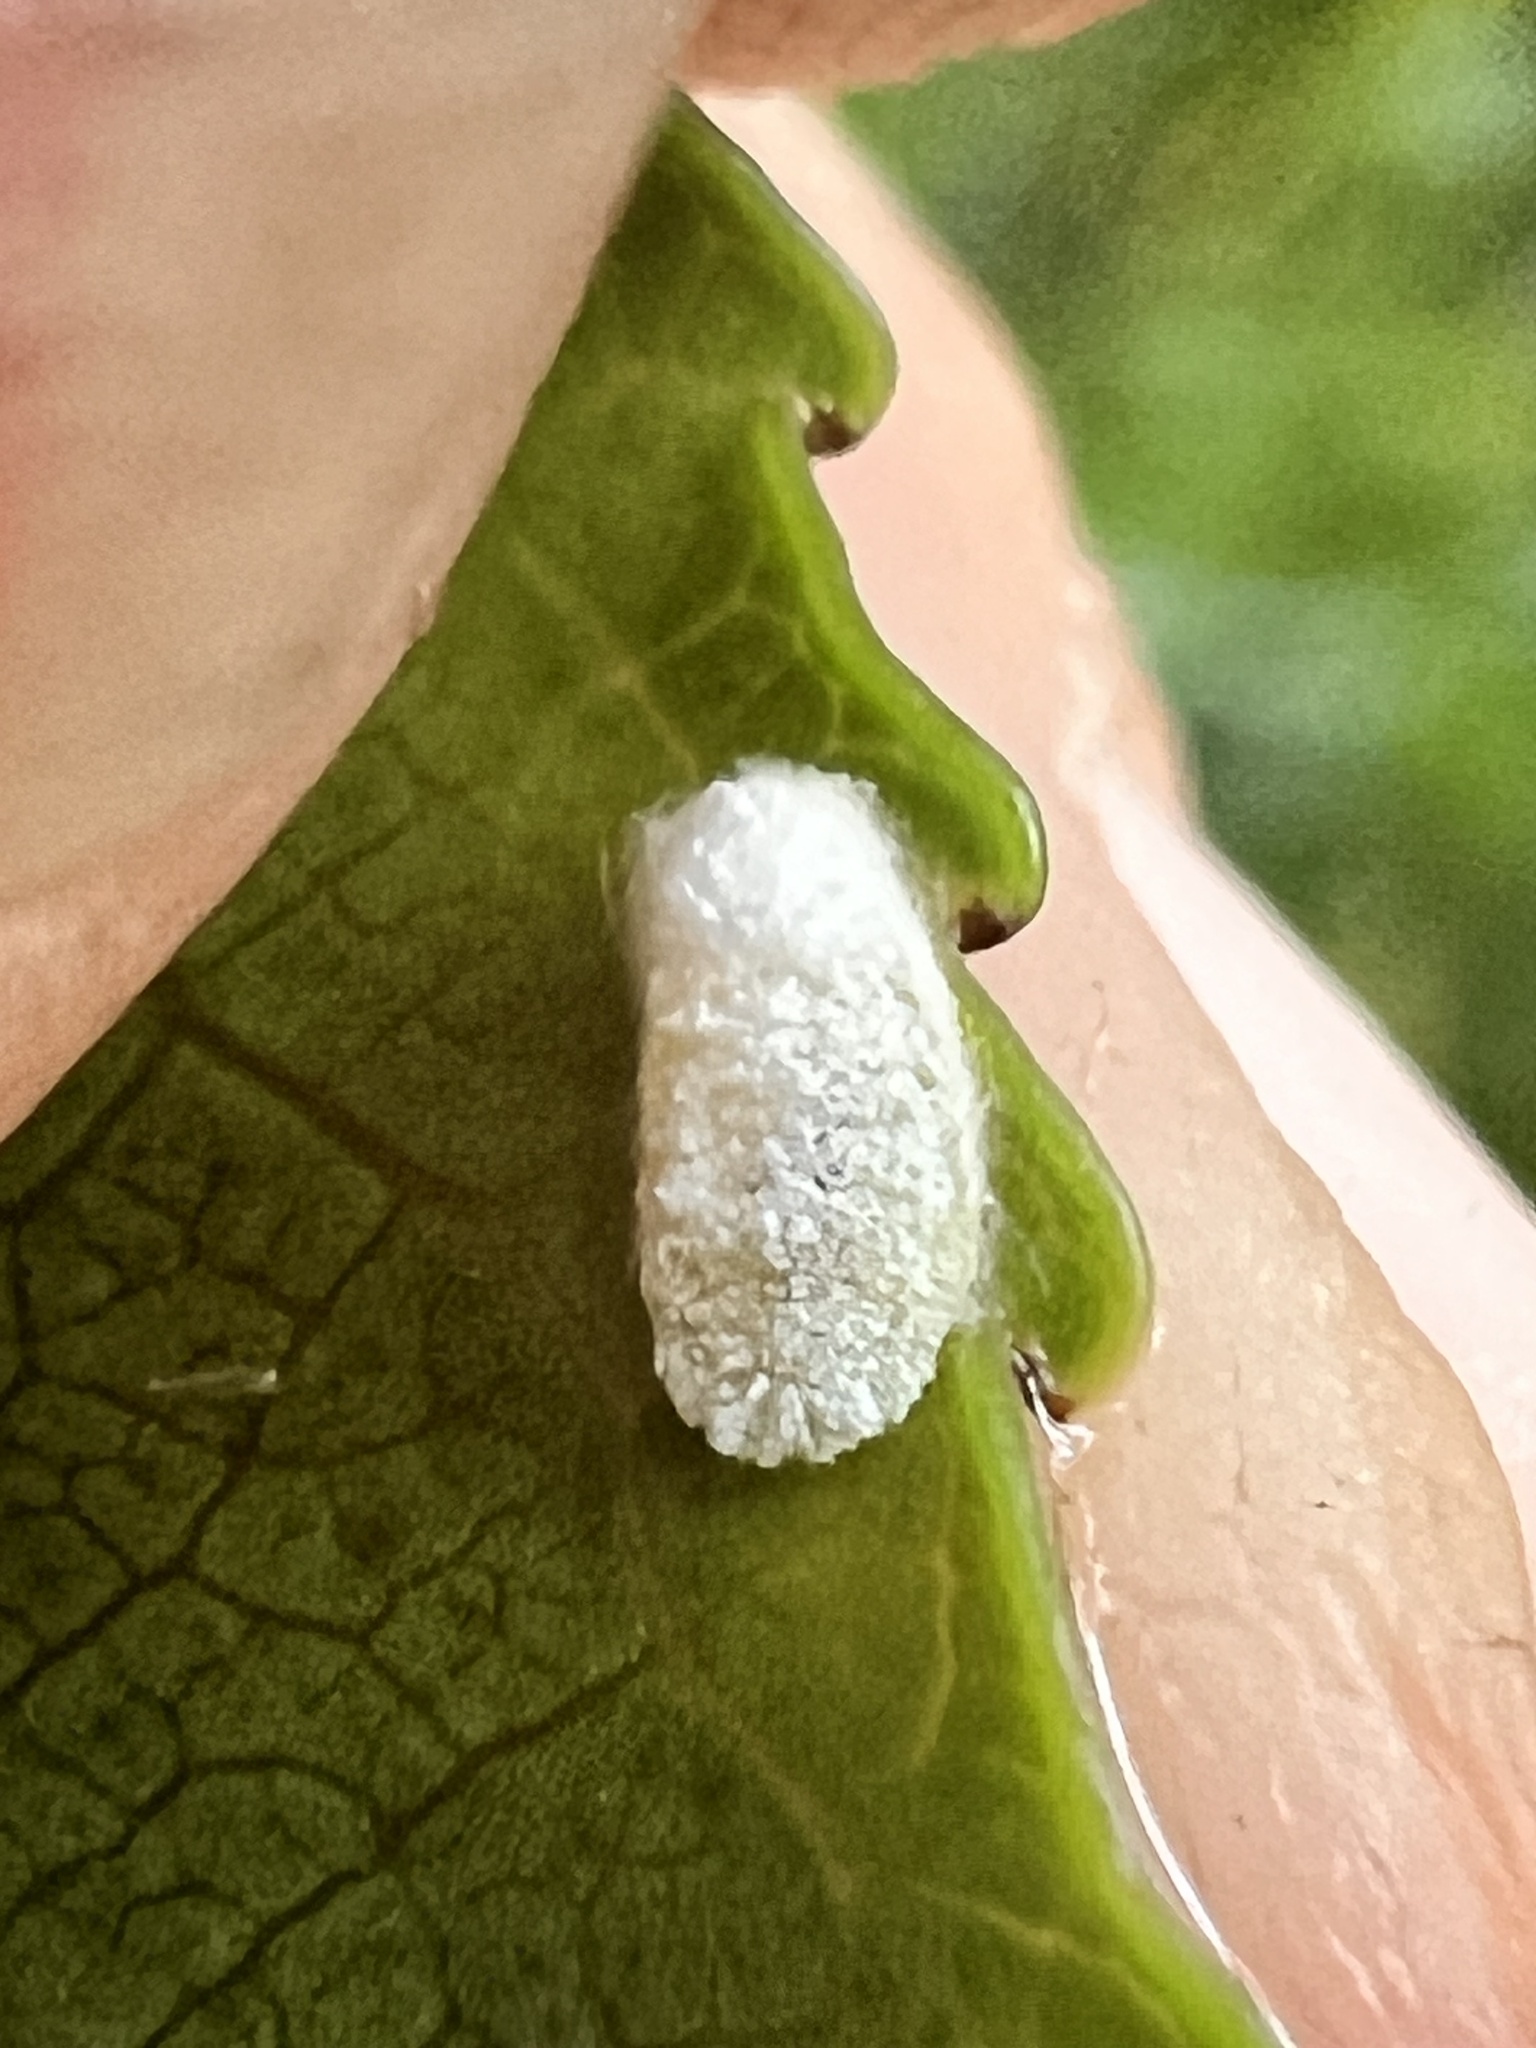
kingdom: Animalia
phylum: Arthropoda
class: Insecta
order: Hemiptera
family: Pseudococcidae
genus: Paracoccus
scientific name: Paracoccus glaucus
